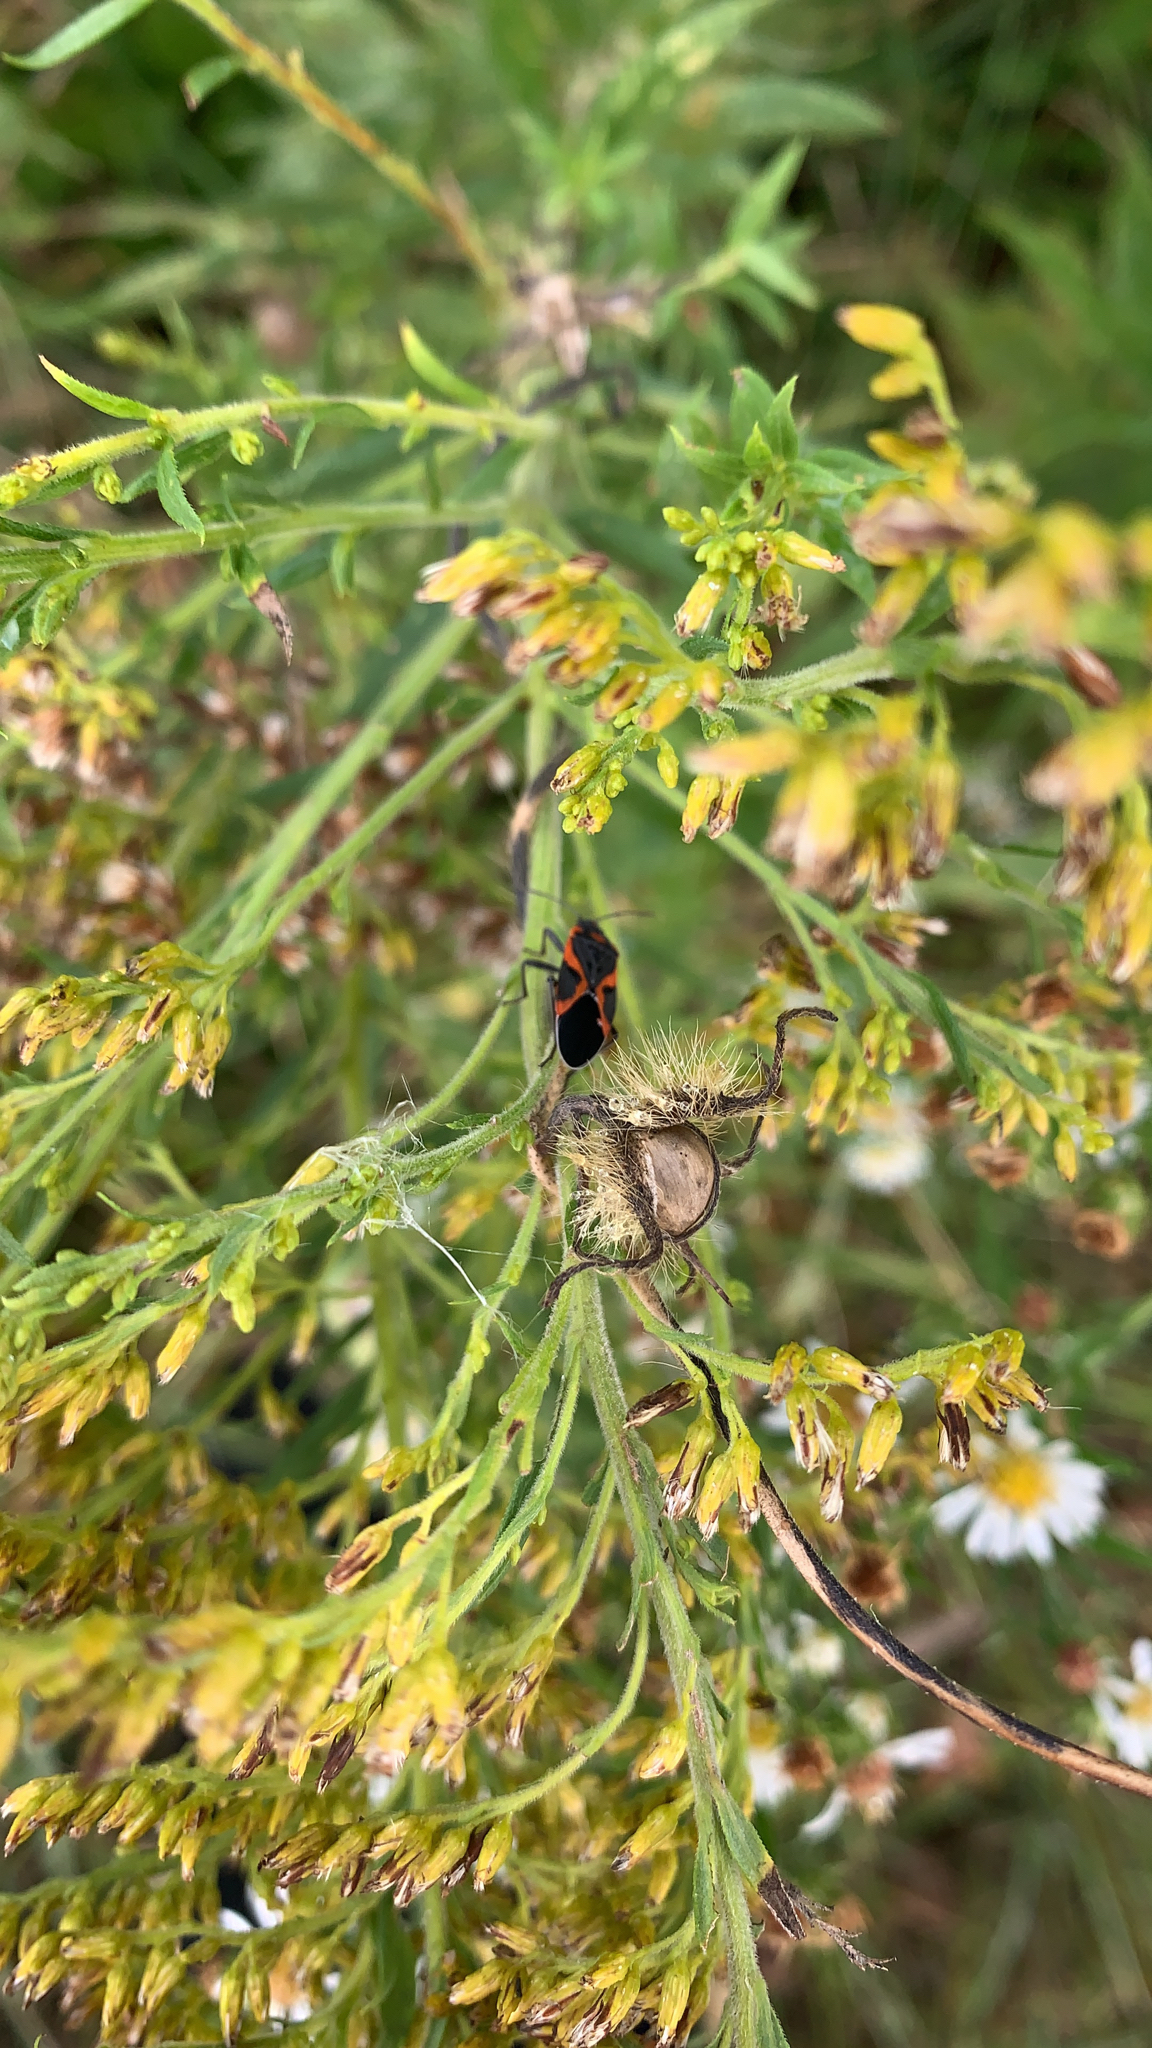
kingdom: Animalia
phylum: Arthropoda
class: Insecta
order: Hemiptera
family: Lygaeidae
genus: Lygaeus
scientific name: Lygaeus kalmii
